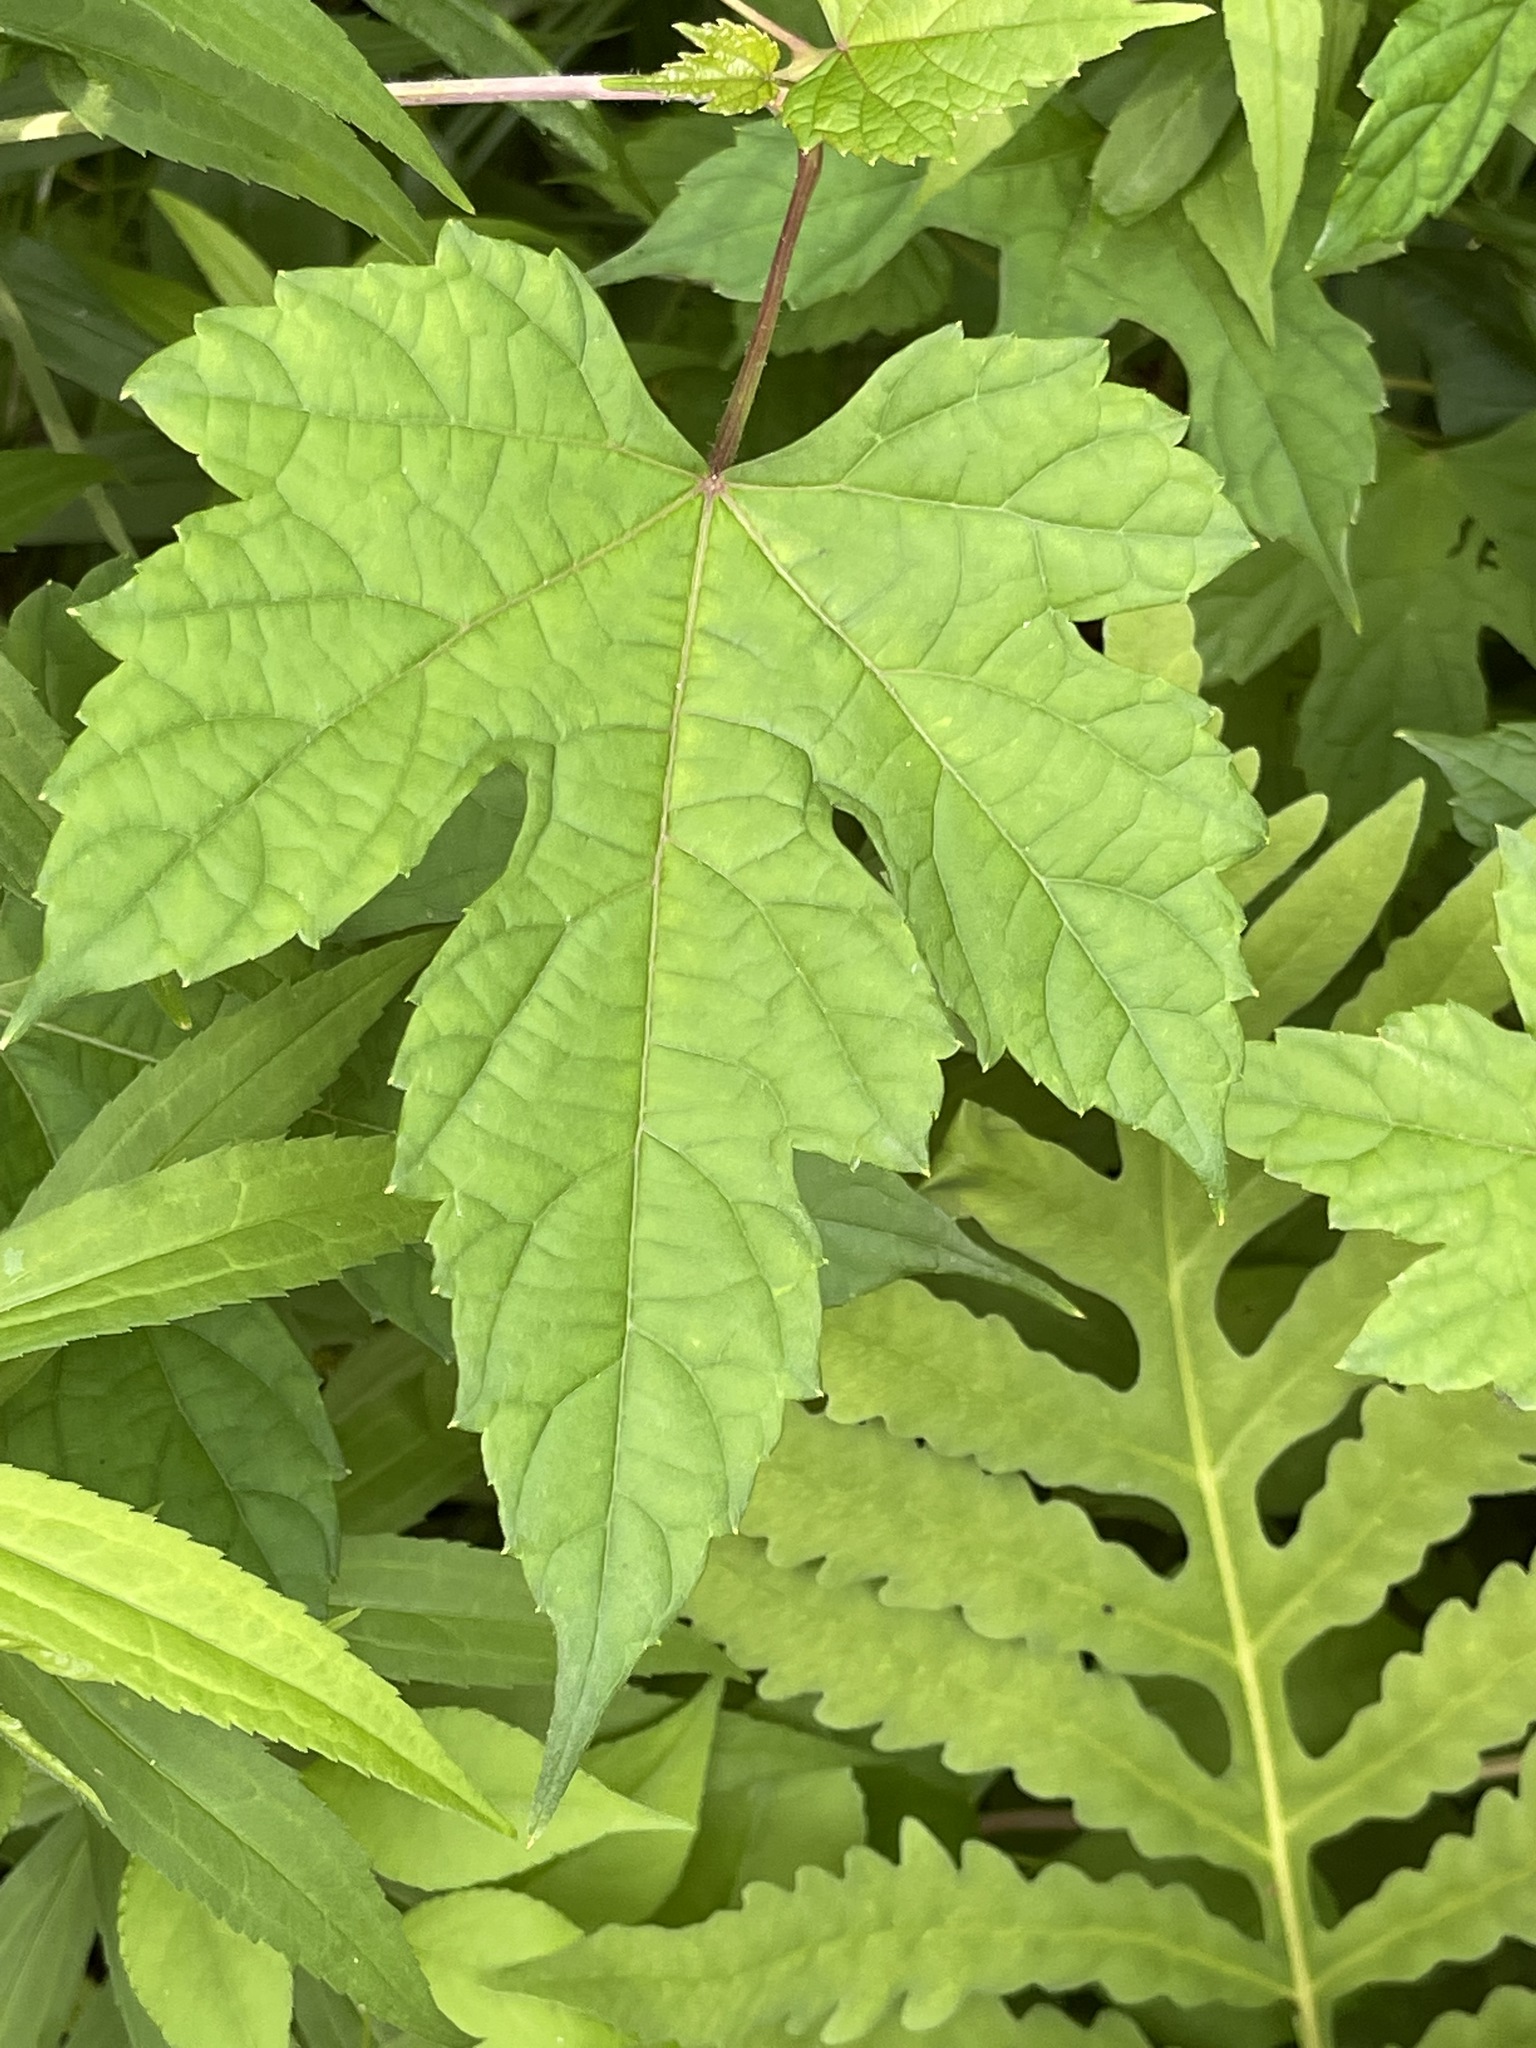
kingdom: Plantae
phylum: Tracheophyta
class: Magnoliopsida
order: Vitales
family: Vitaceae
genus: Ampelopsis
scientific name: Ampelopsis glandulosa
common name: Amur peppervine
